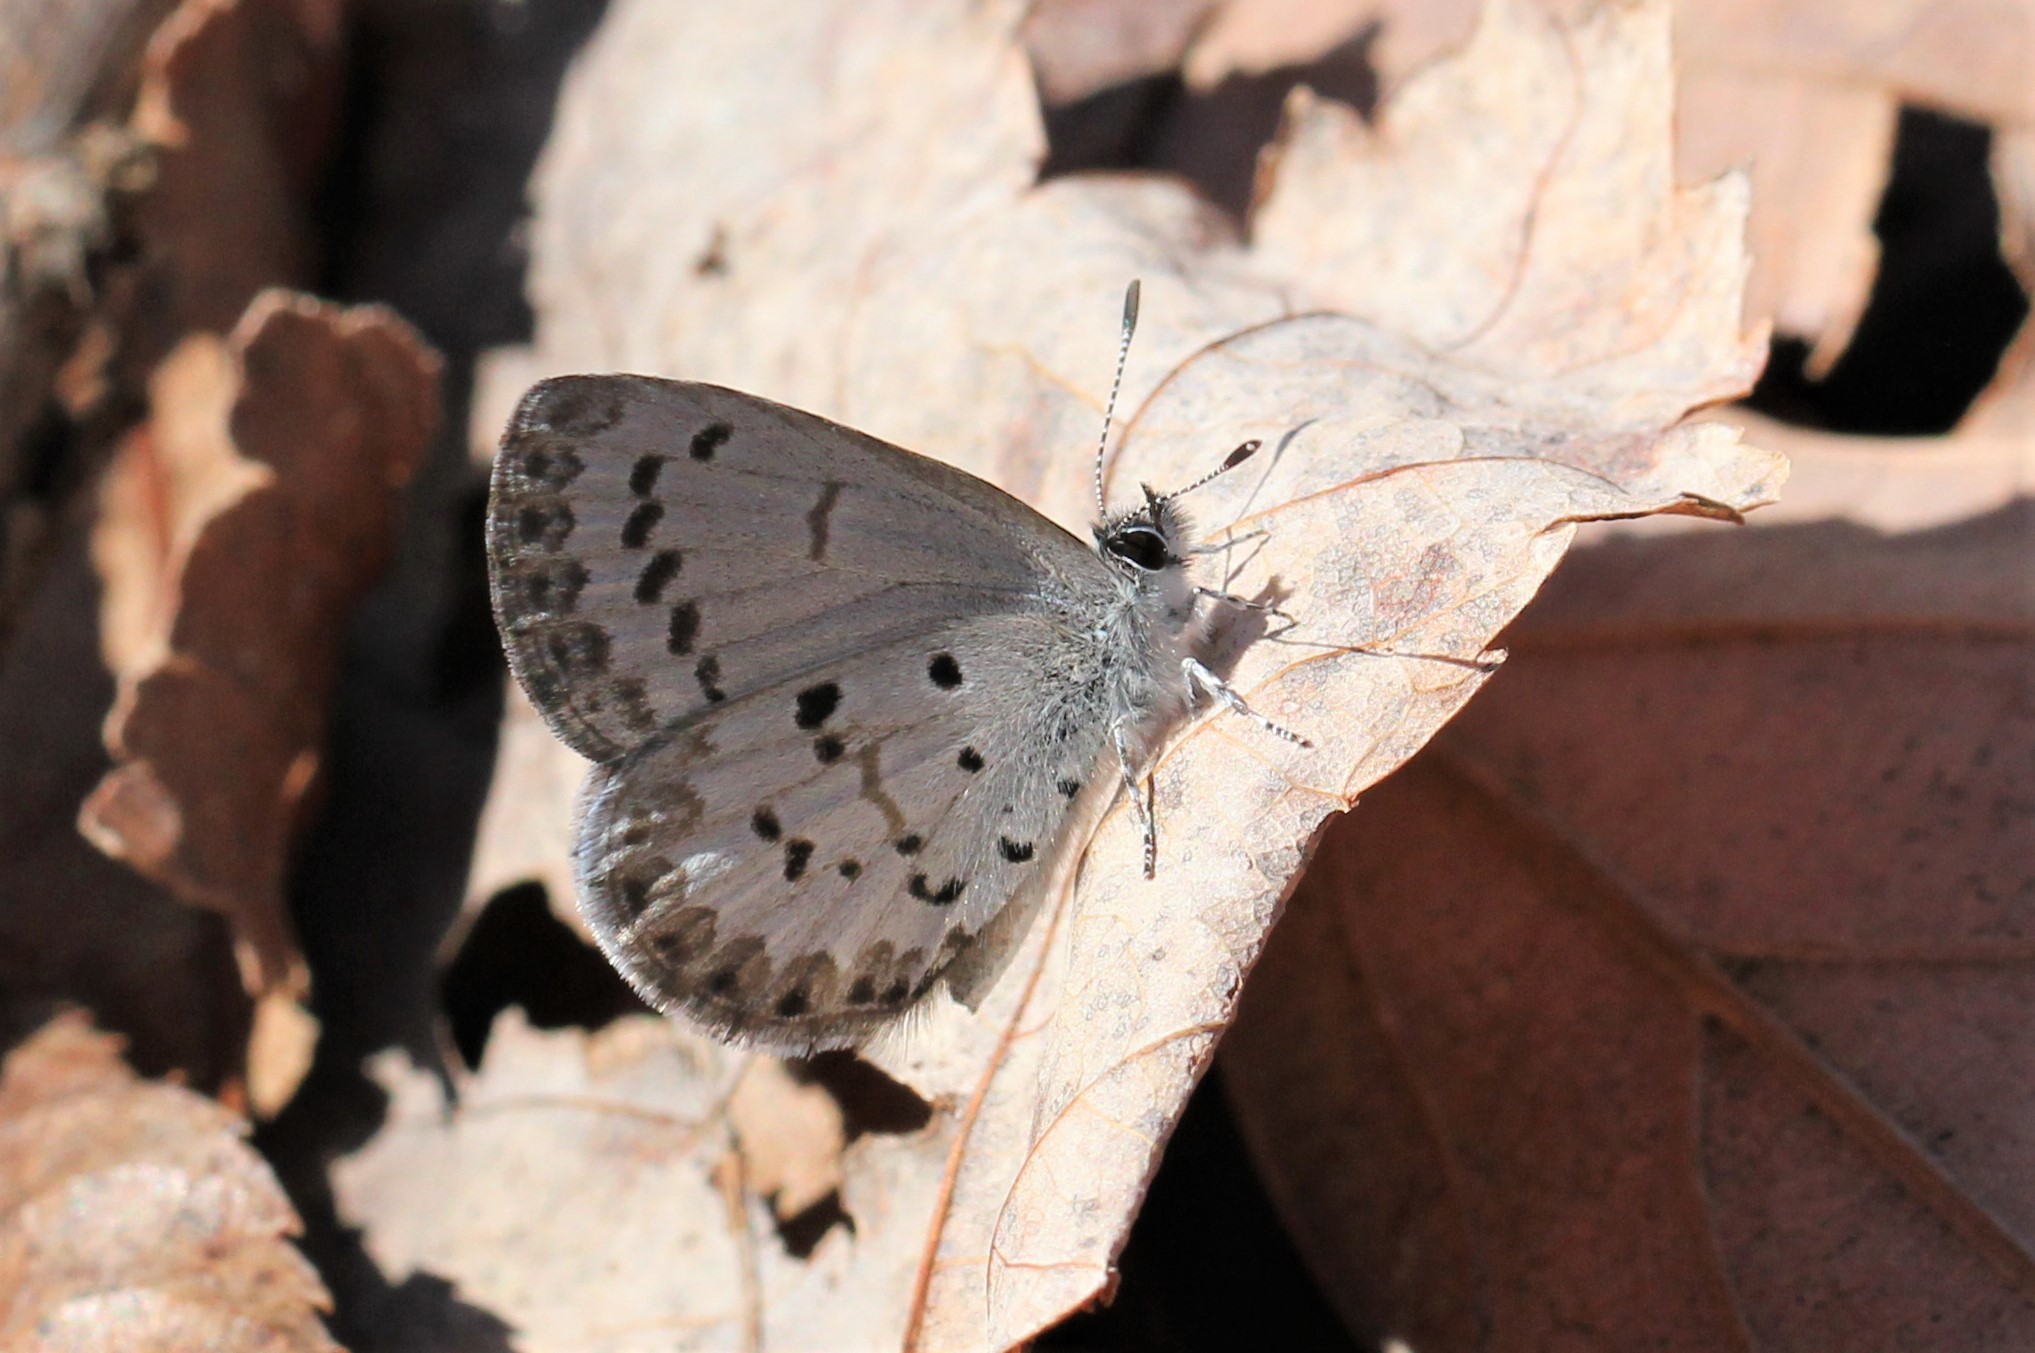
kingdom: Animalia
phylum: Arthropoda
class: Insecta
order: Lepidoptera
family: Lycaenidae
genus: Celastrina
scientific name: Celastrina ladon
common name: Spring azure
